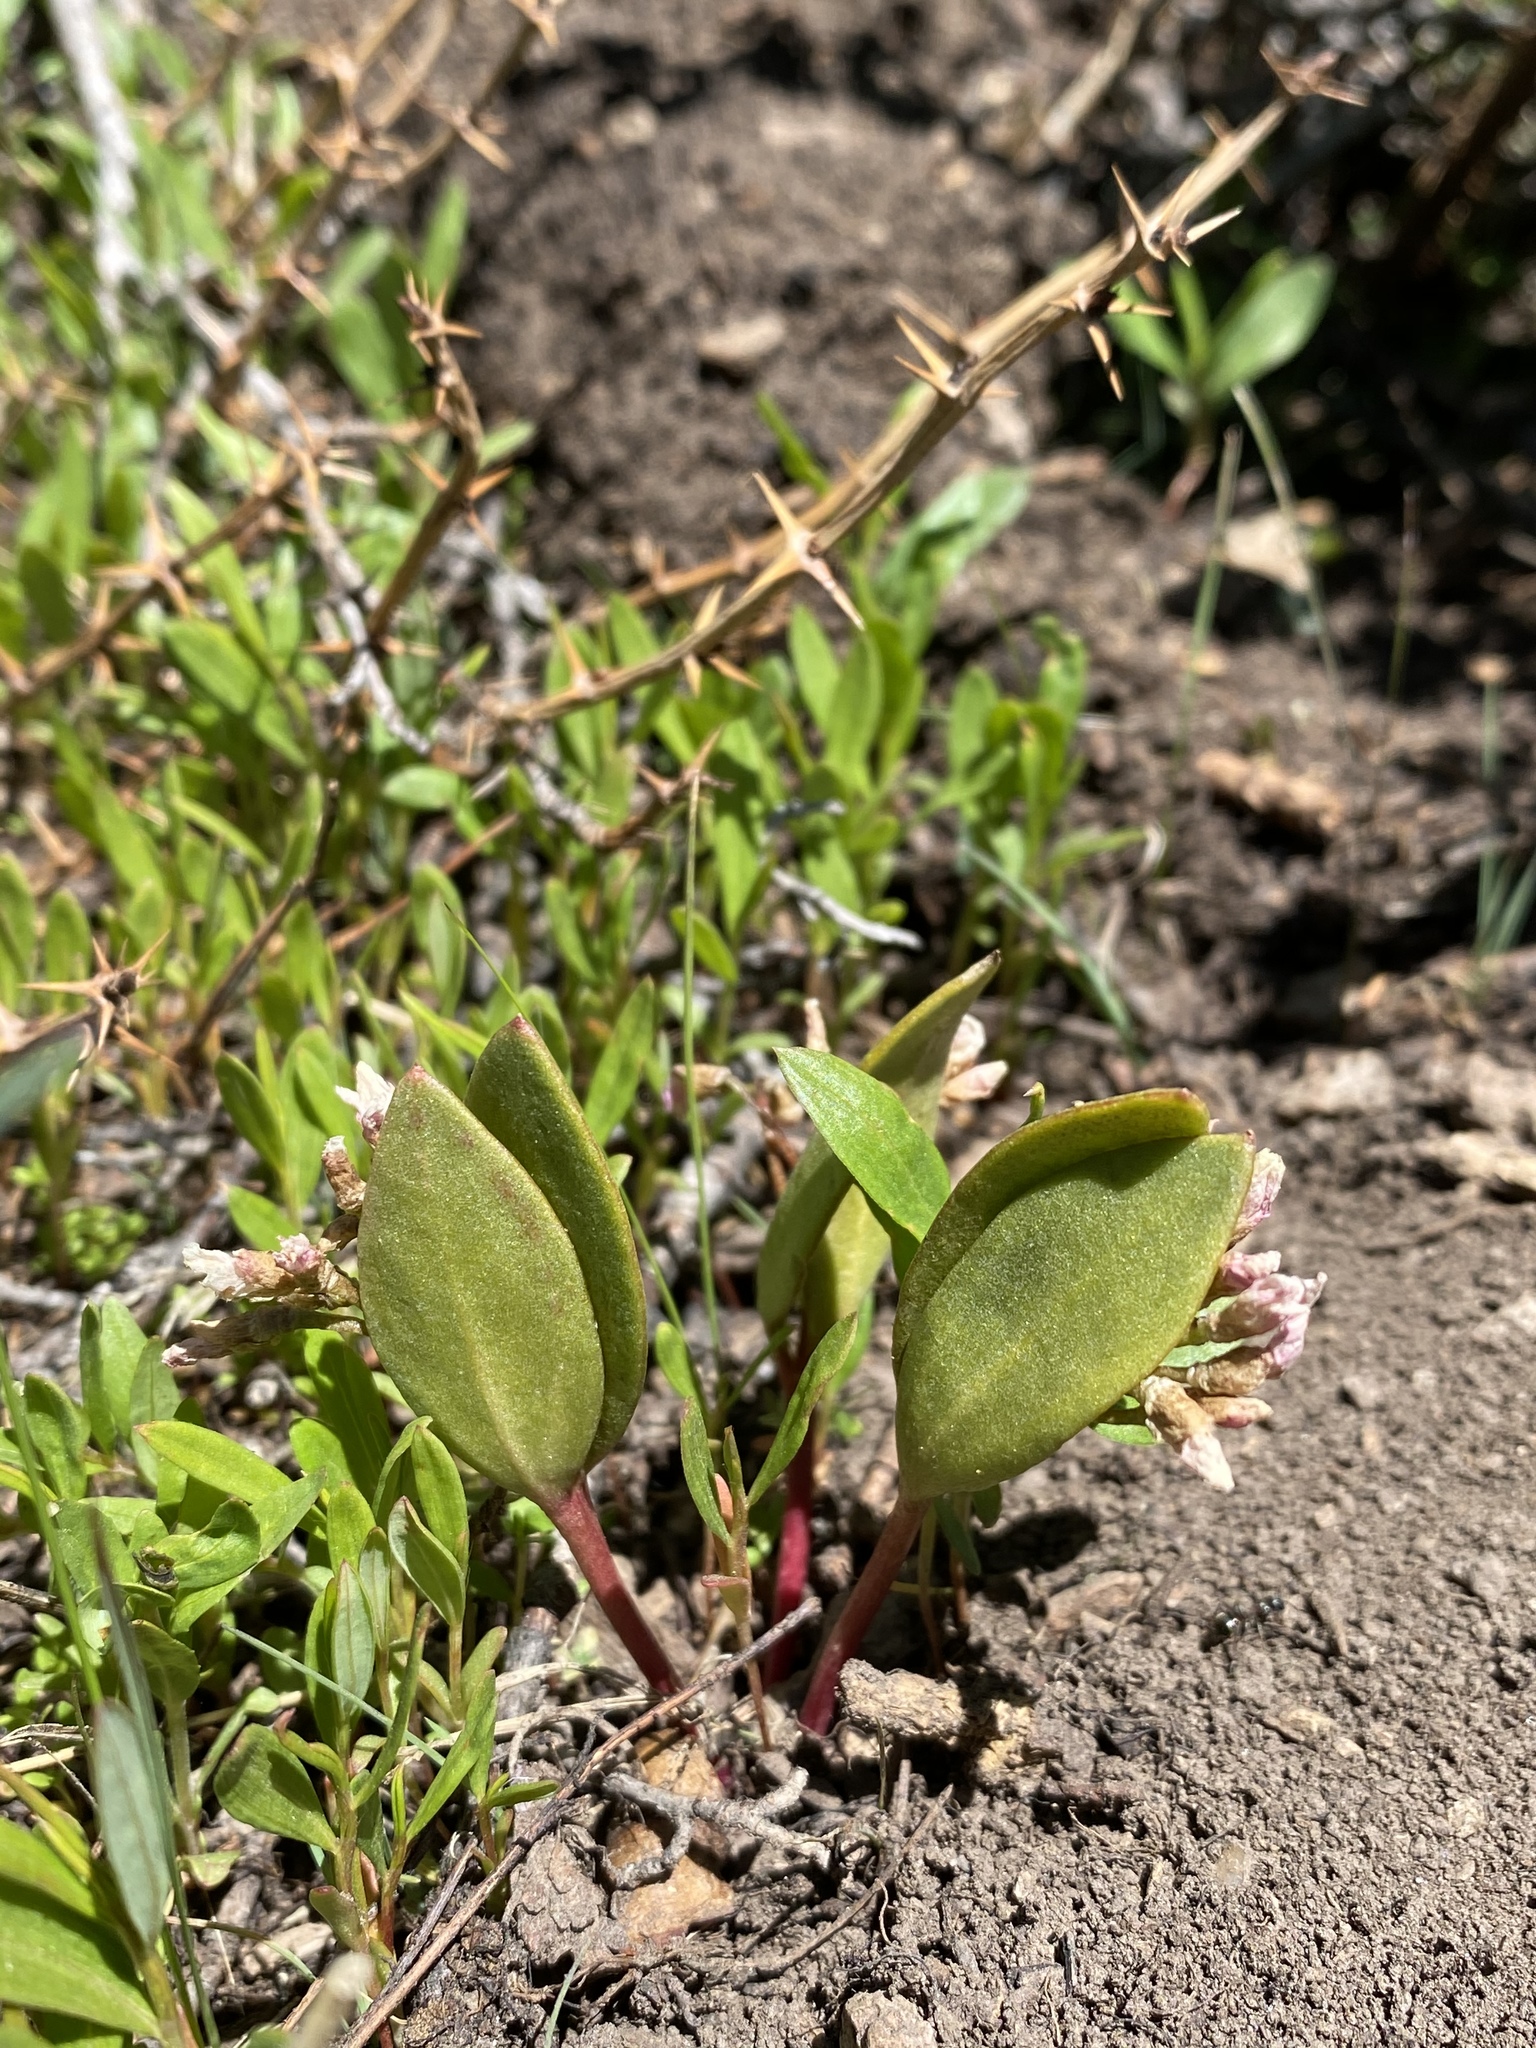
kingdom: Plantae
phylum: Tracheophyta
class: Magnoliopsida
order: Caryophyllales
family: Montiaceae
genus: Claytonia
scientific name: Claytonia lanceolata
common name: Western spring-beauty
